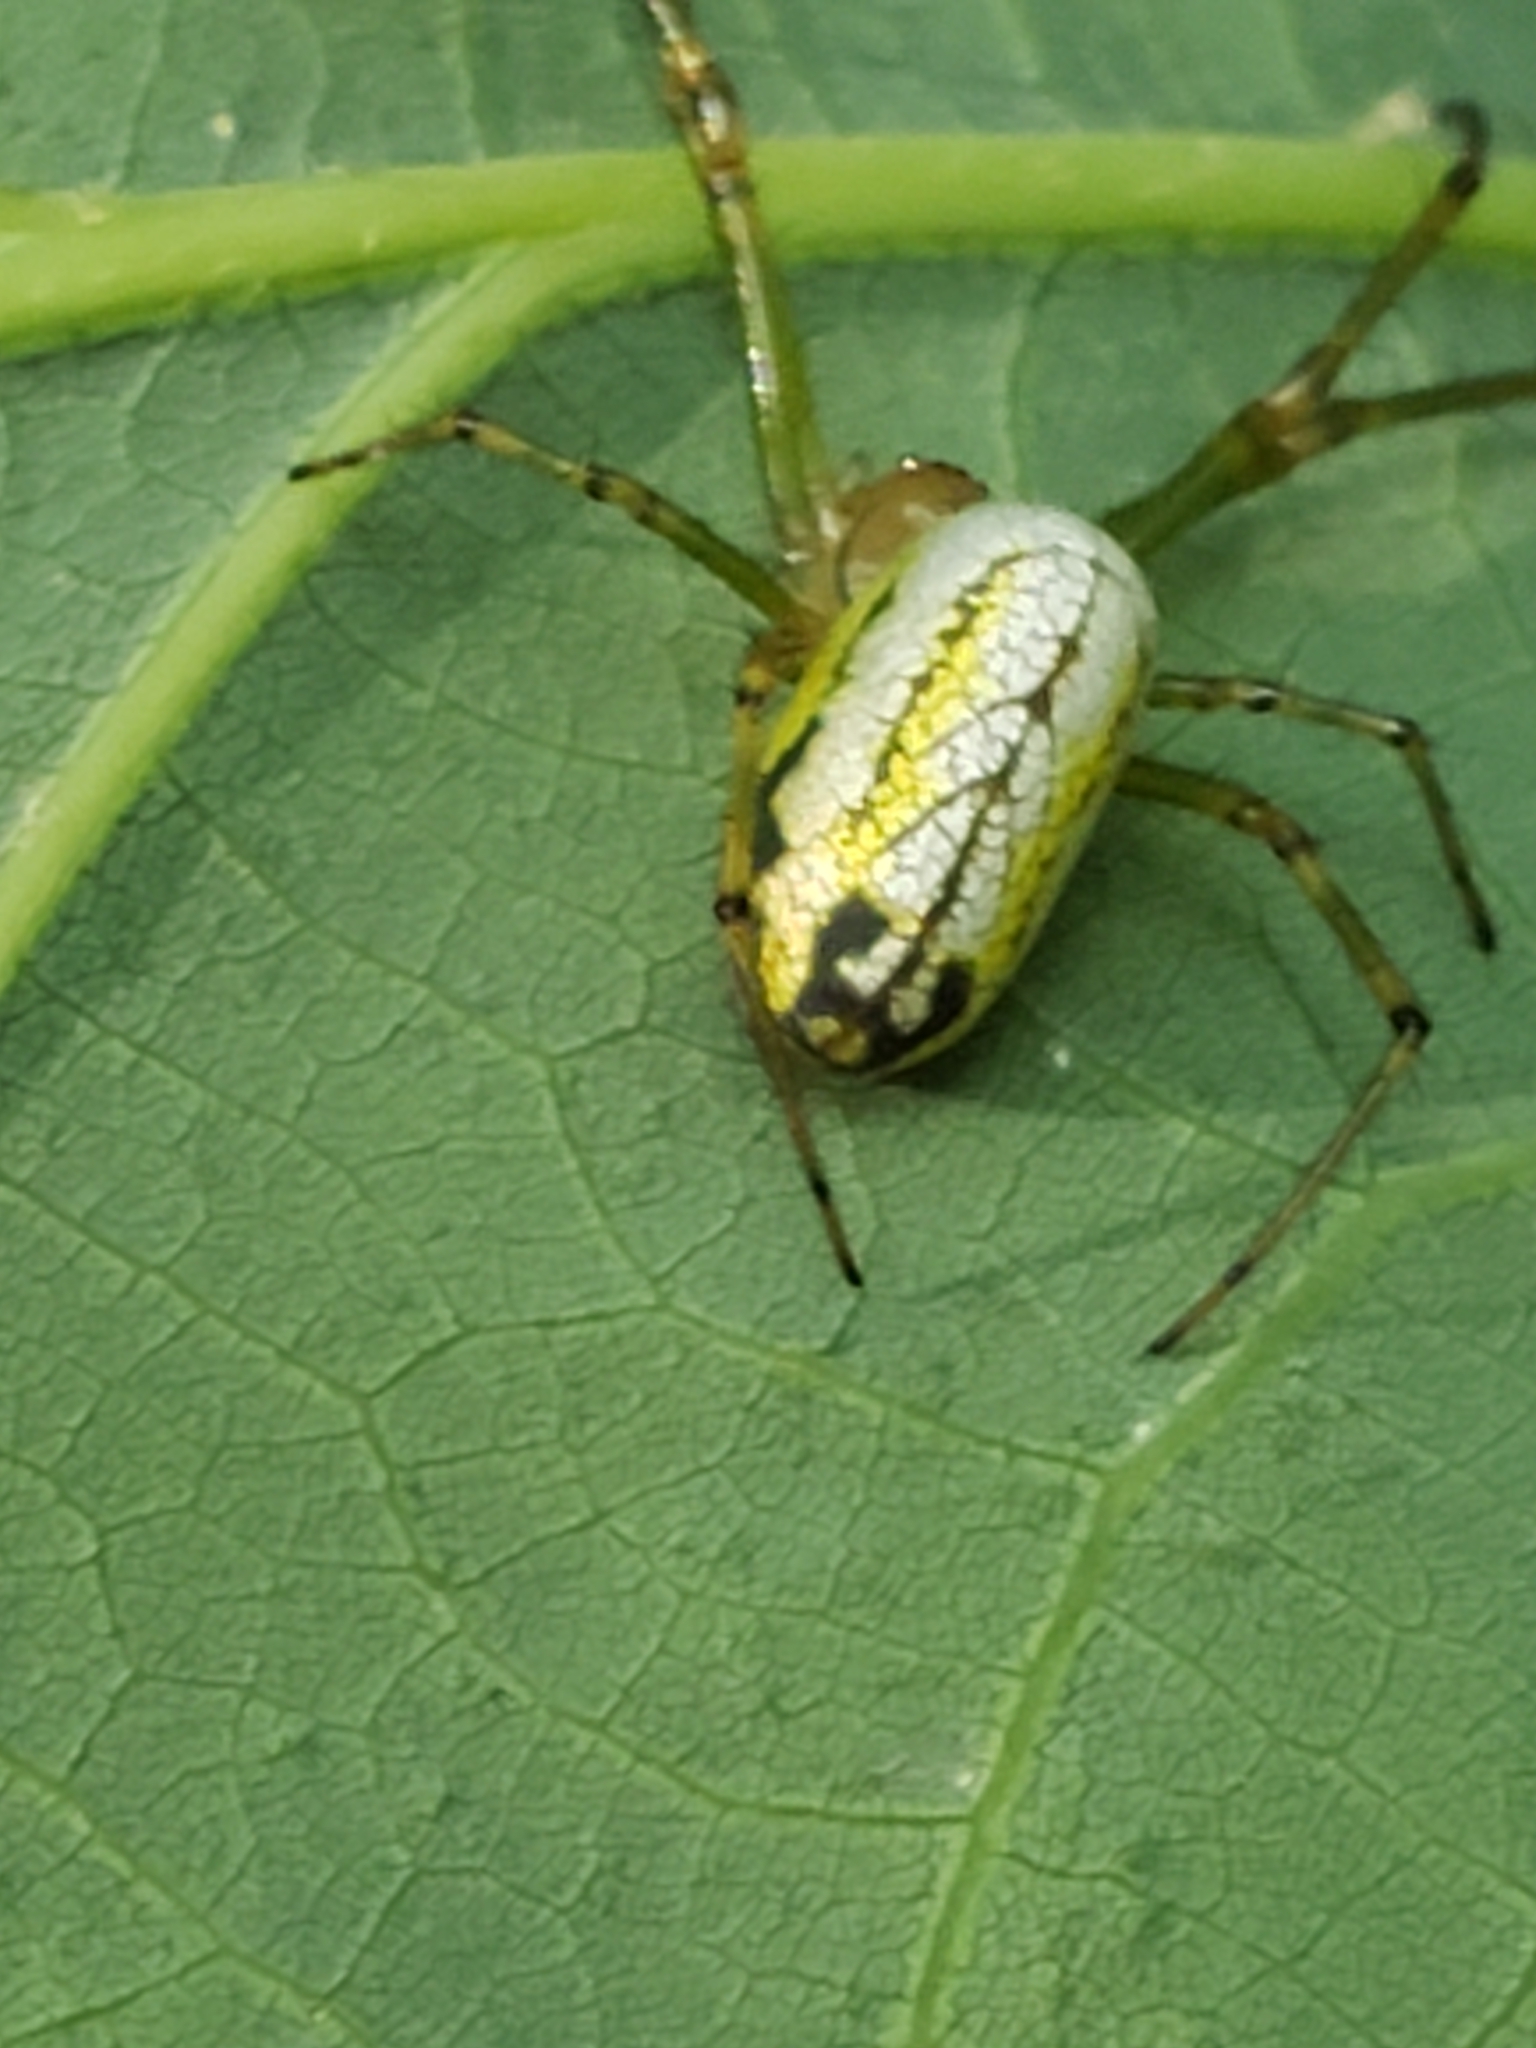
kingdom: Animalia
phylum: Arthropoda
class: Arachnida
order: Araneae
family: Tetragnathidae
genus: Leucauge
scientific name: Leucauge venusta
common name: Longjawed orb weavers
